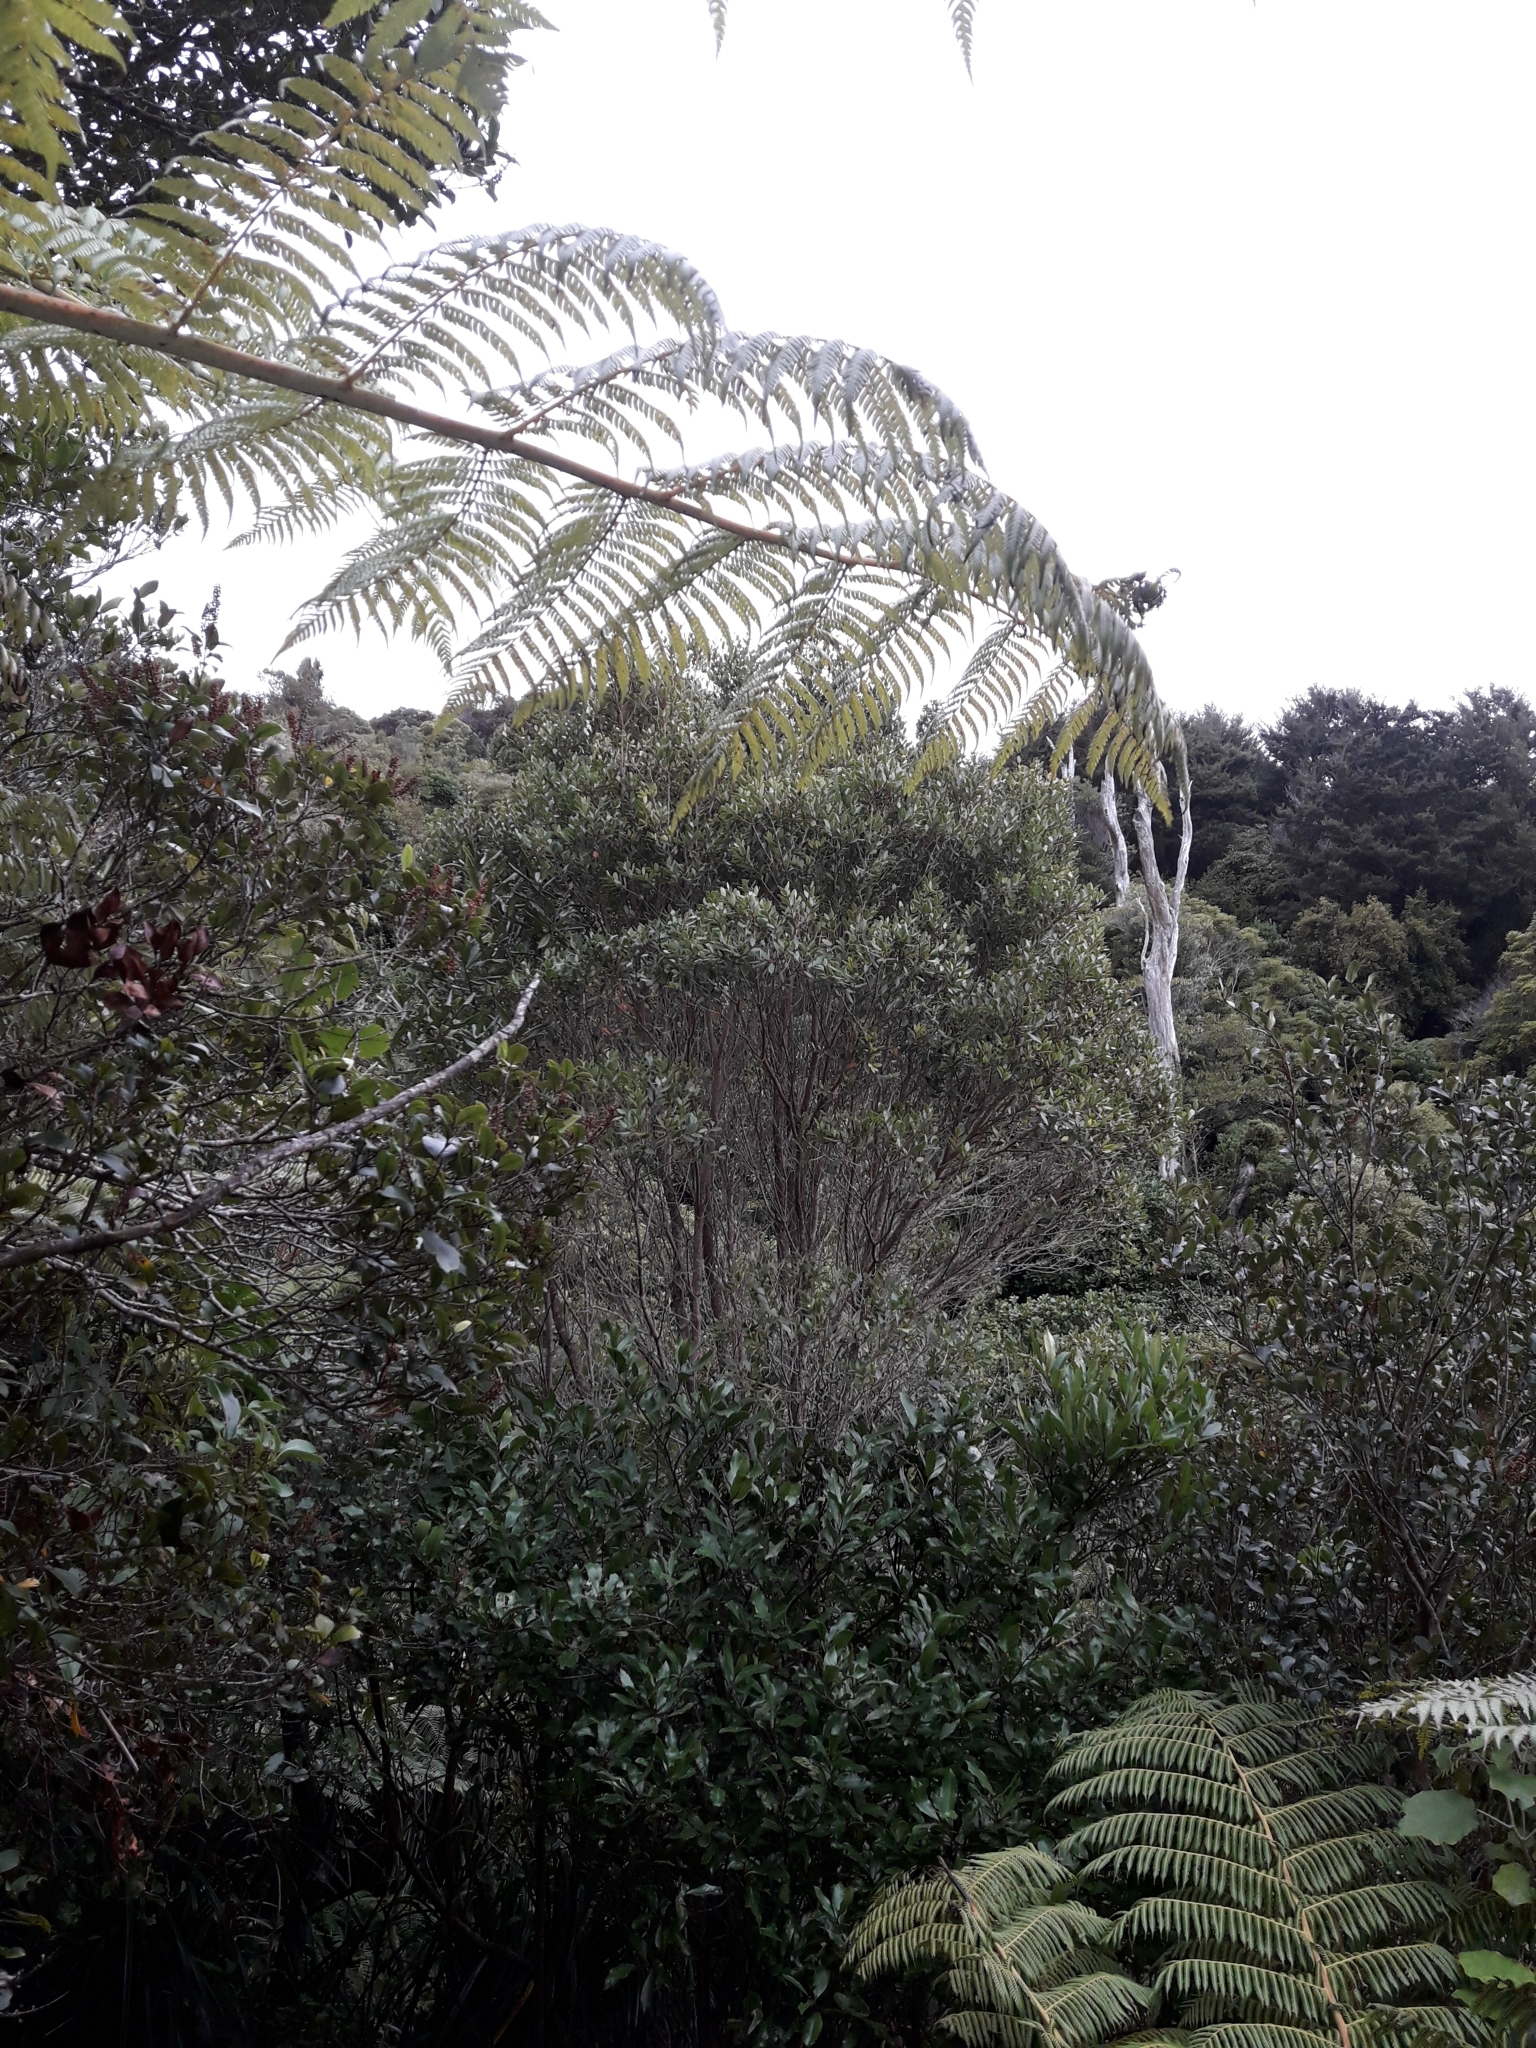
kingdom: Plantae
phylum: Tracheophyta
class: Magnoliopsida
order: Myrtales
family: Myrtaceae
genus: Metrosideros
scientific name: Metrosideros robusta
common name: Northern rata
